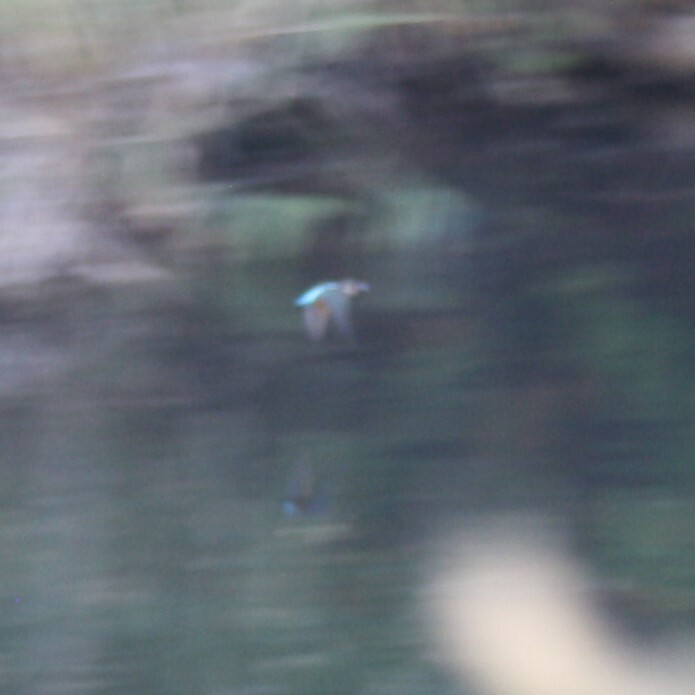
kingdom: Animalia
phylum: Chordata
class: Aves
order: Coraciiformes
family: Alcedinidae
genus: Alcedo
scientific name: Alcedo atthis
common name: Common kingfisher
